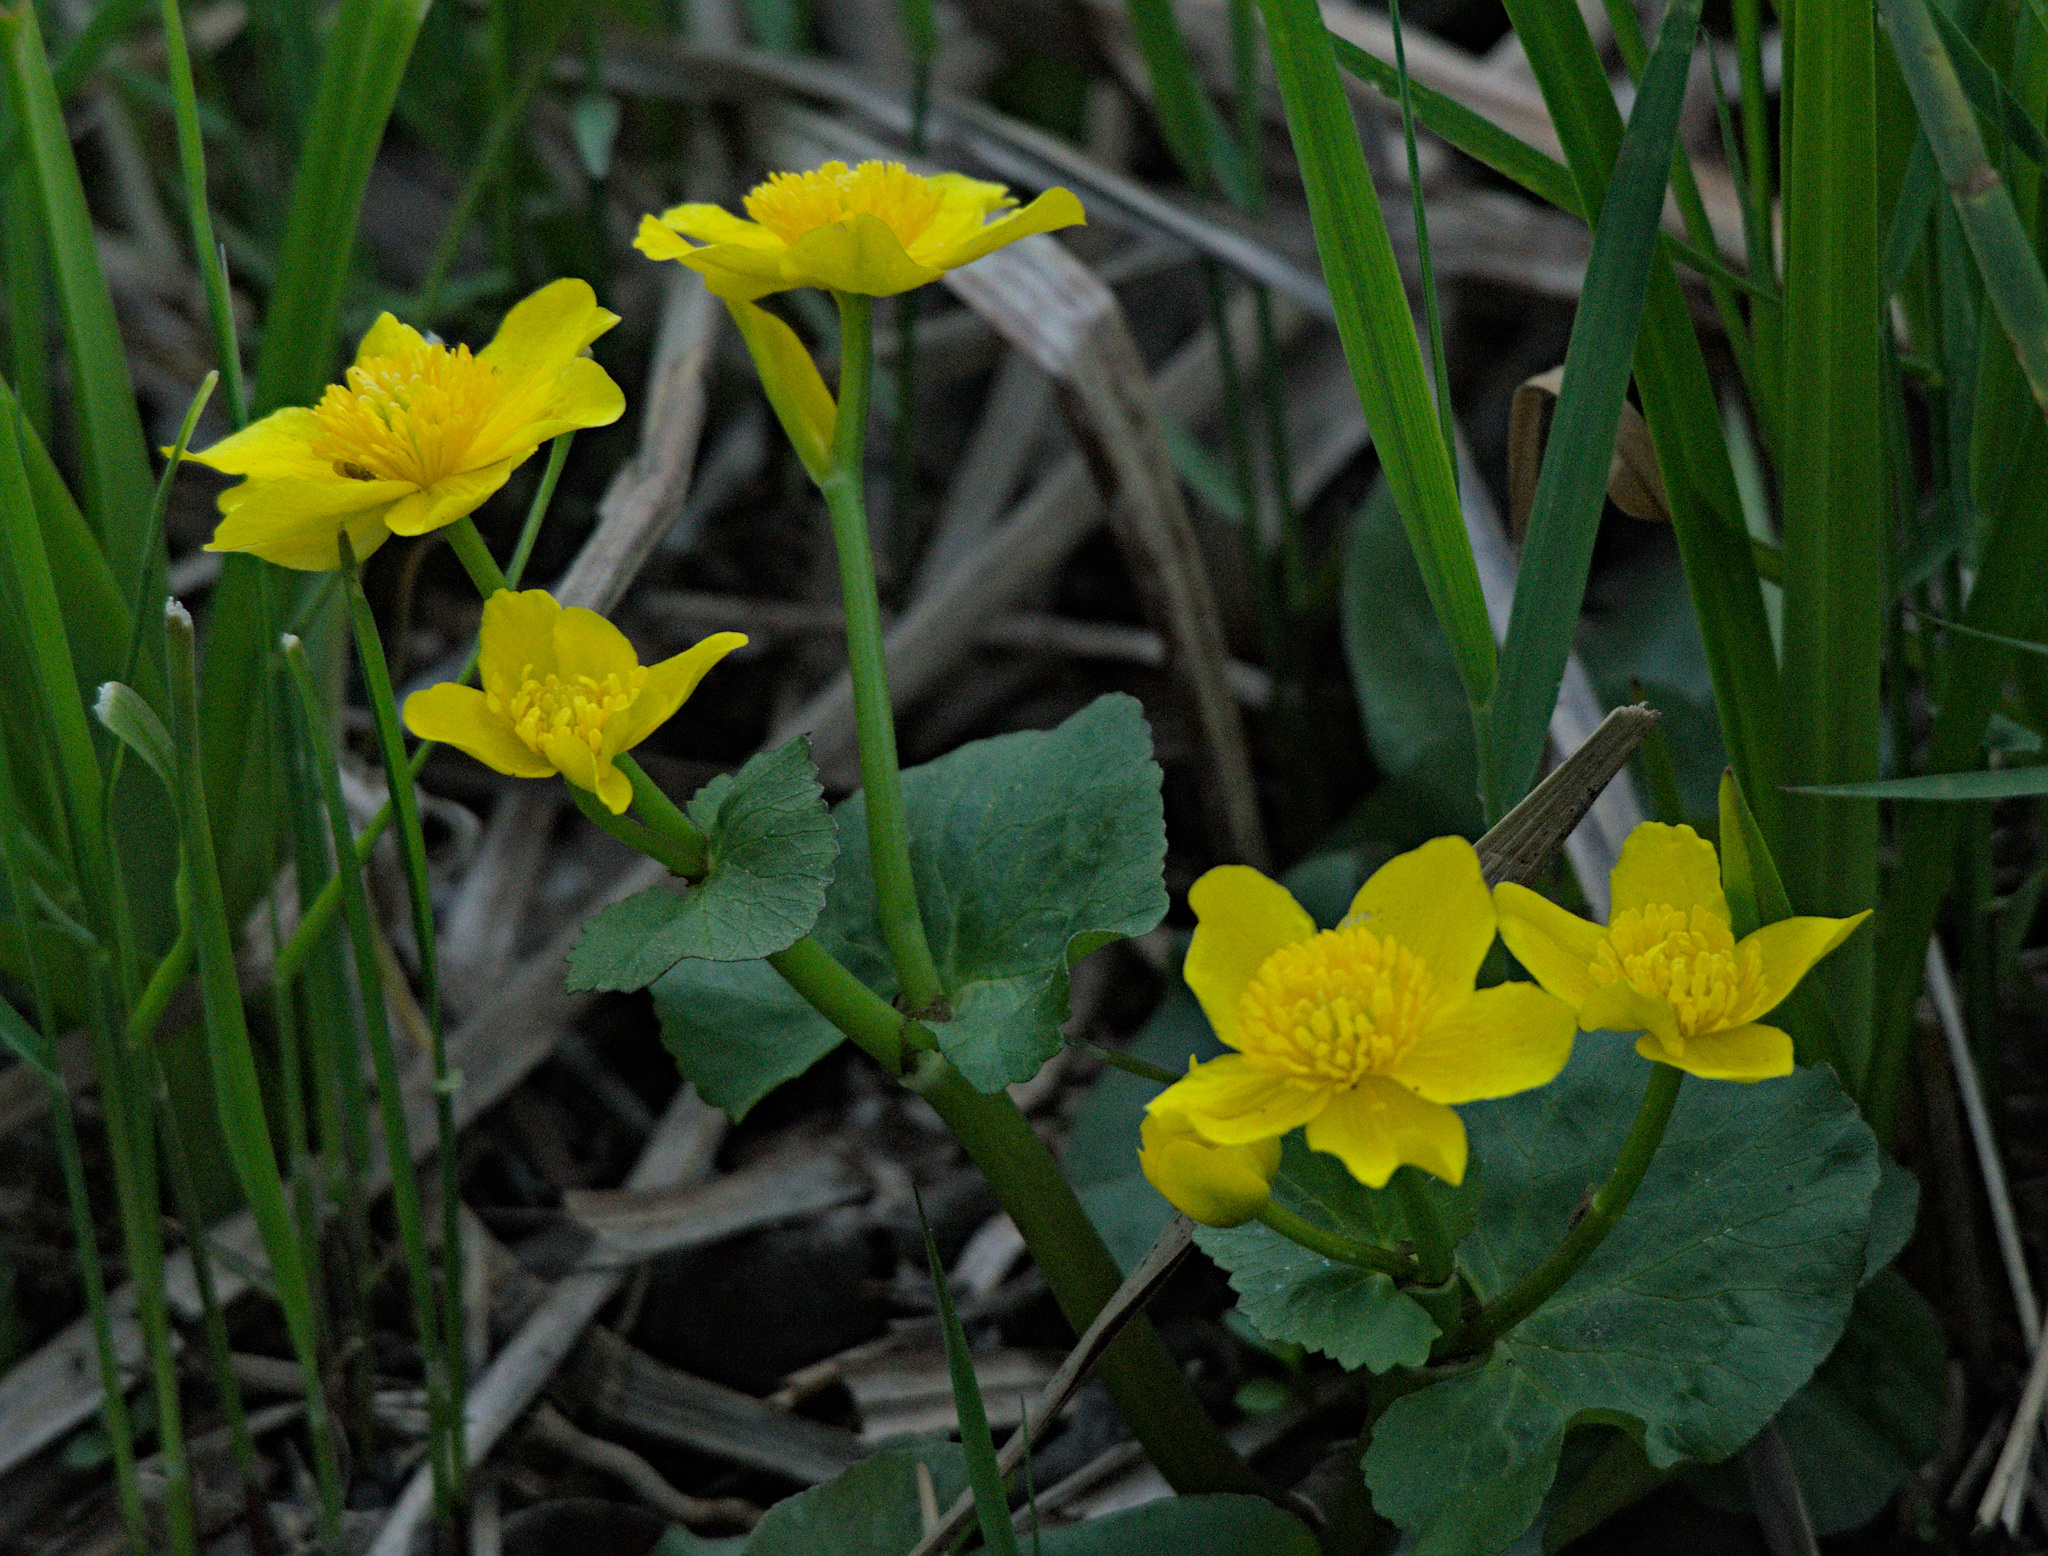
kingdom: Plantae
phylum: Tracheophyta
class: Magnoliopsida
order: Ranunculales
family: Ranunculaceae
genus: Caltha
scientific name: Caltha palustris
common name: Marsh marigold
